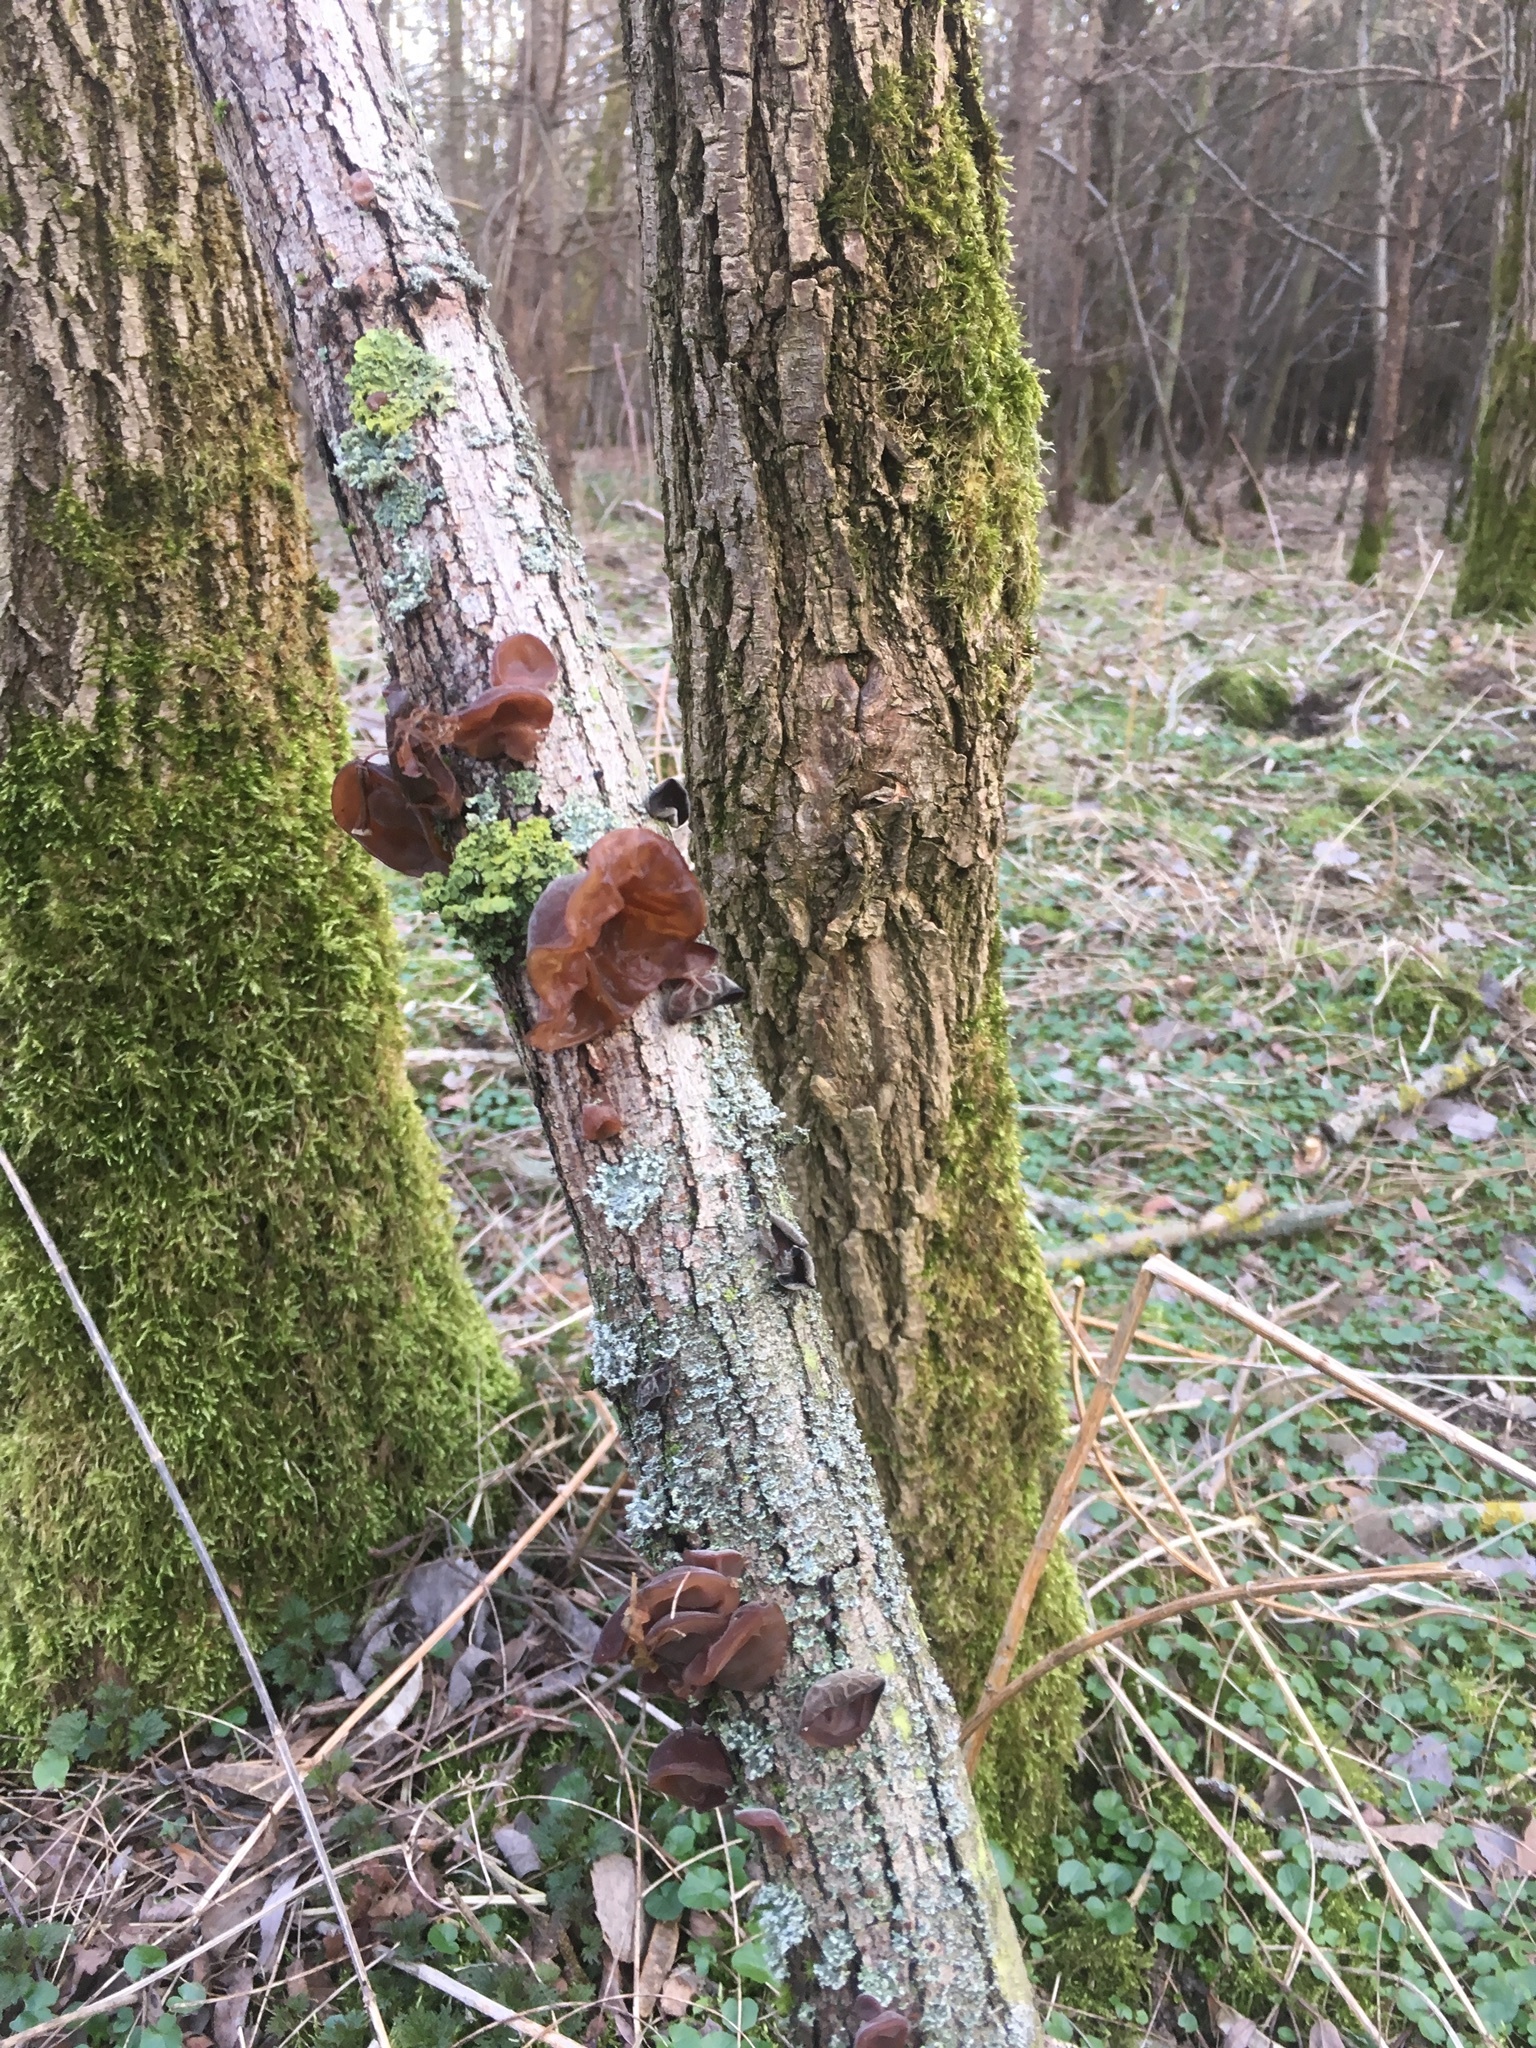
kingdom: Fungi
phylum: Basidiomycota
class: Agaricomycetes
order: Auriculariales
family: Auriculariaceae
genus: Auricularia
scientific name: Auricularia auricula-judae
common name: Jelly ear
